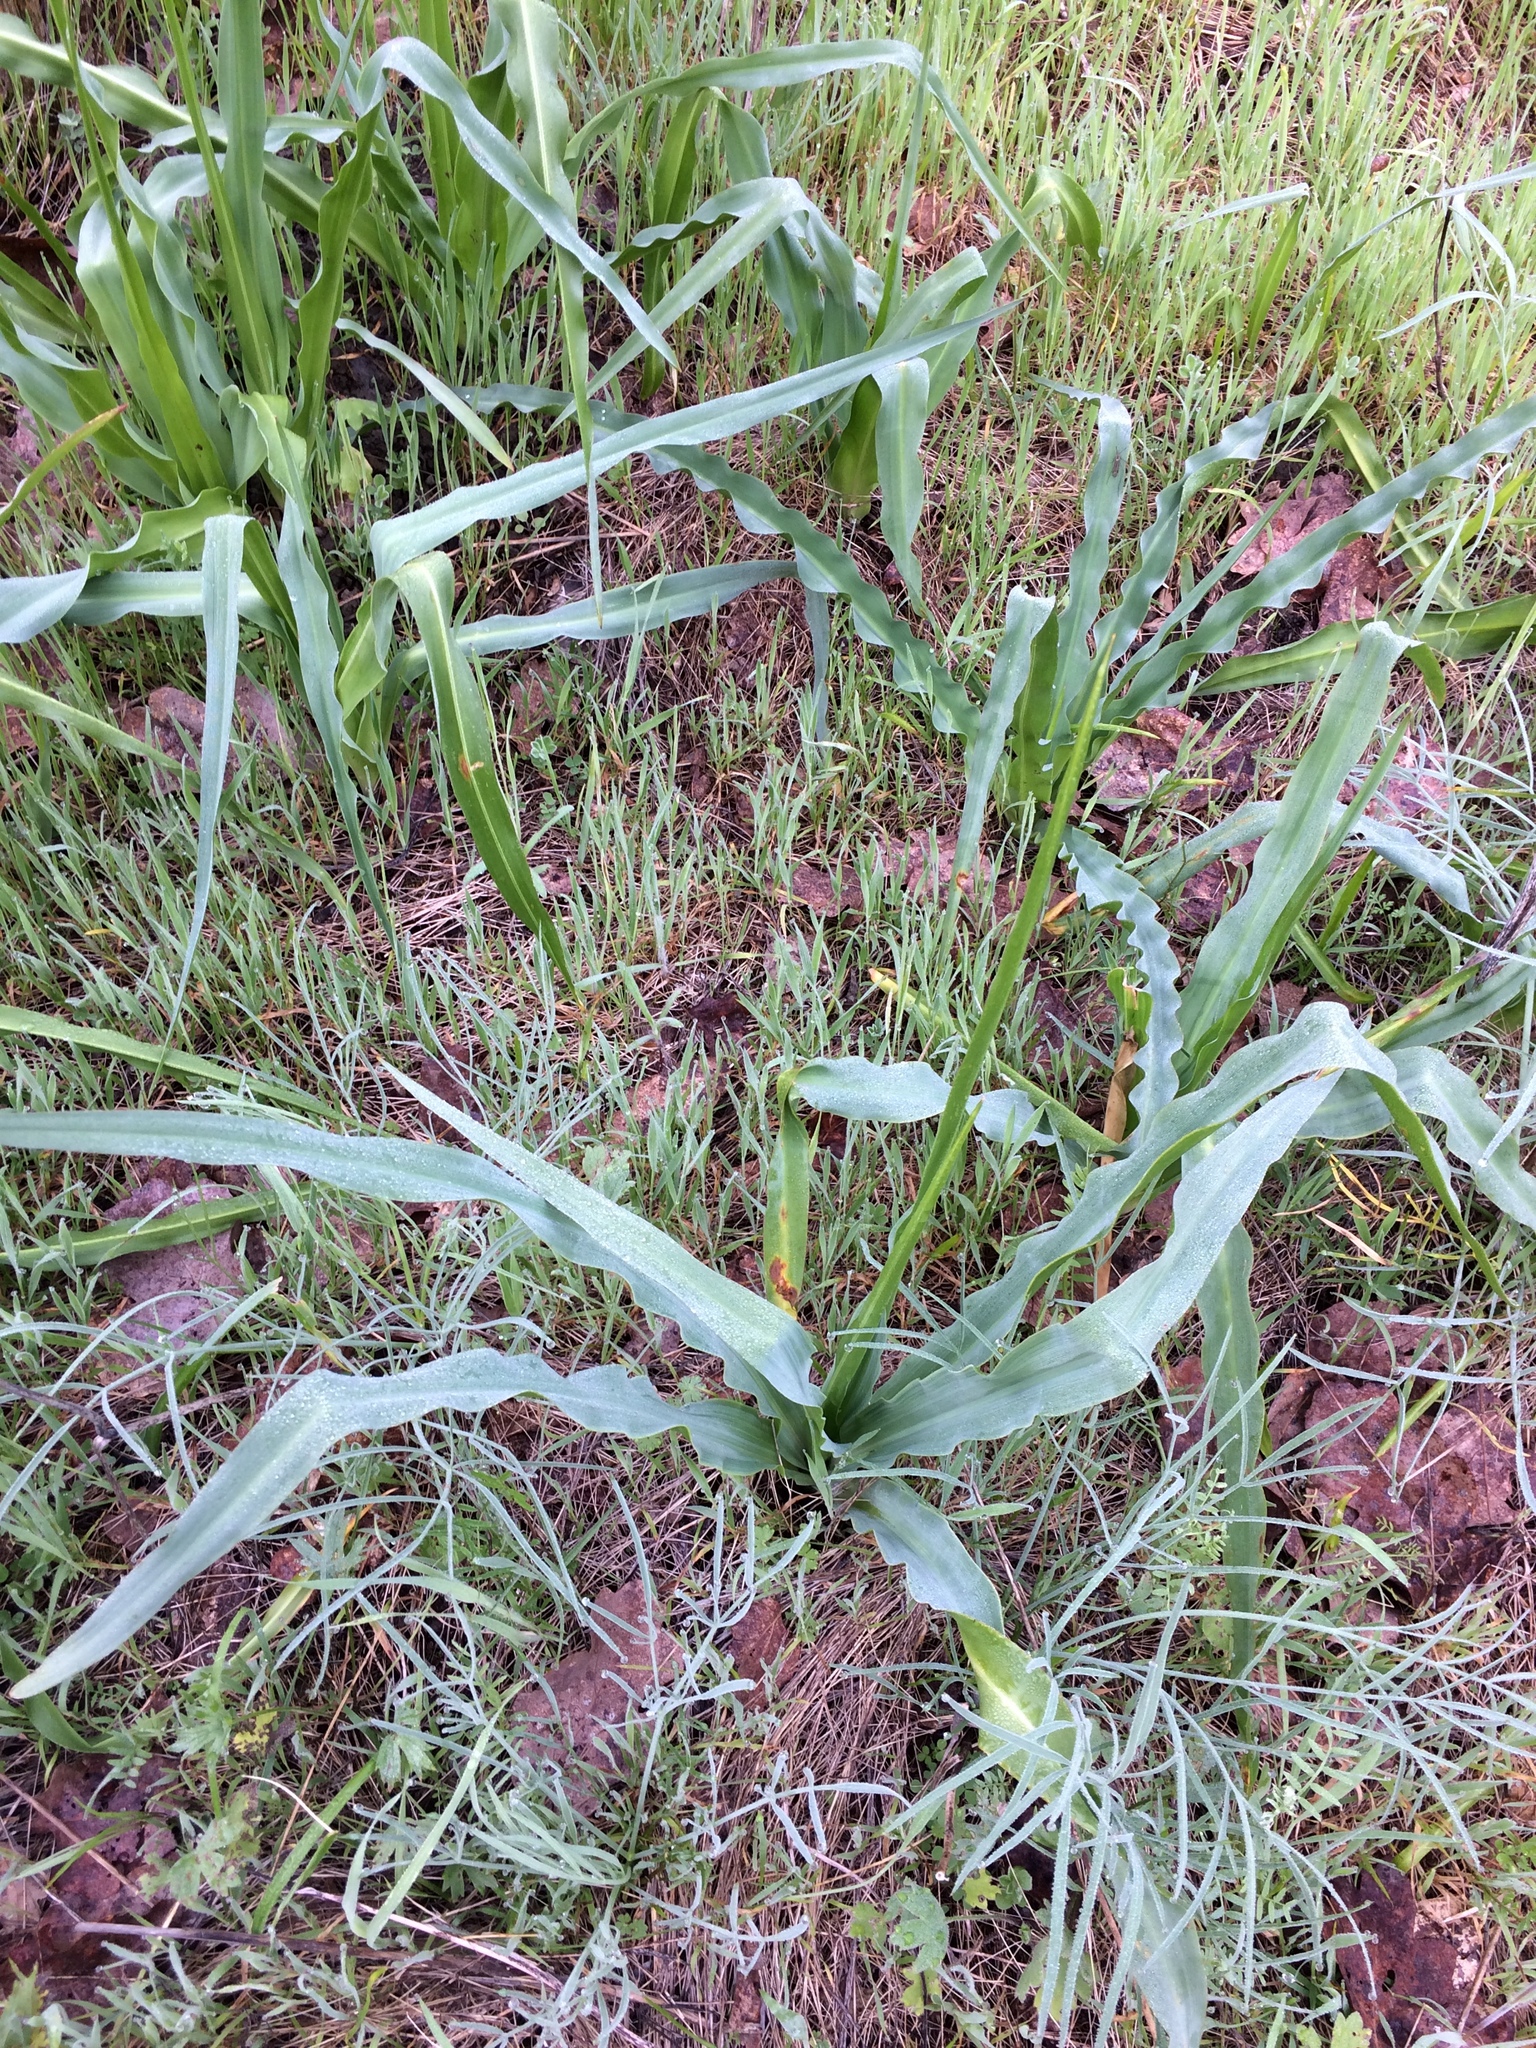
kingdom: Plantae
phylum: Tracheophyta
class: Liliopsida
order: Asparagales
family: Asparagaceae
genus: Chlorogalum
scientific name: Chlorogalum pomeridianum
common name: Amole
